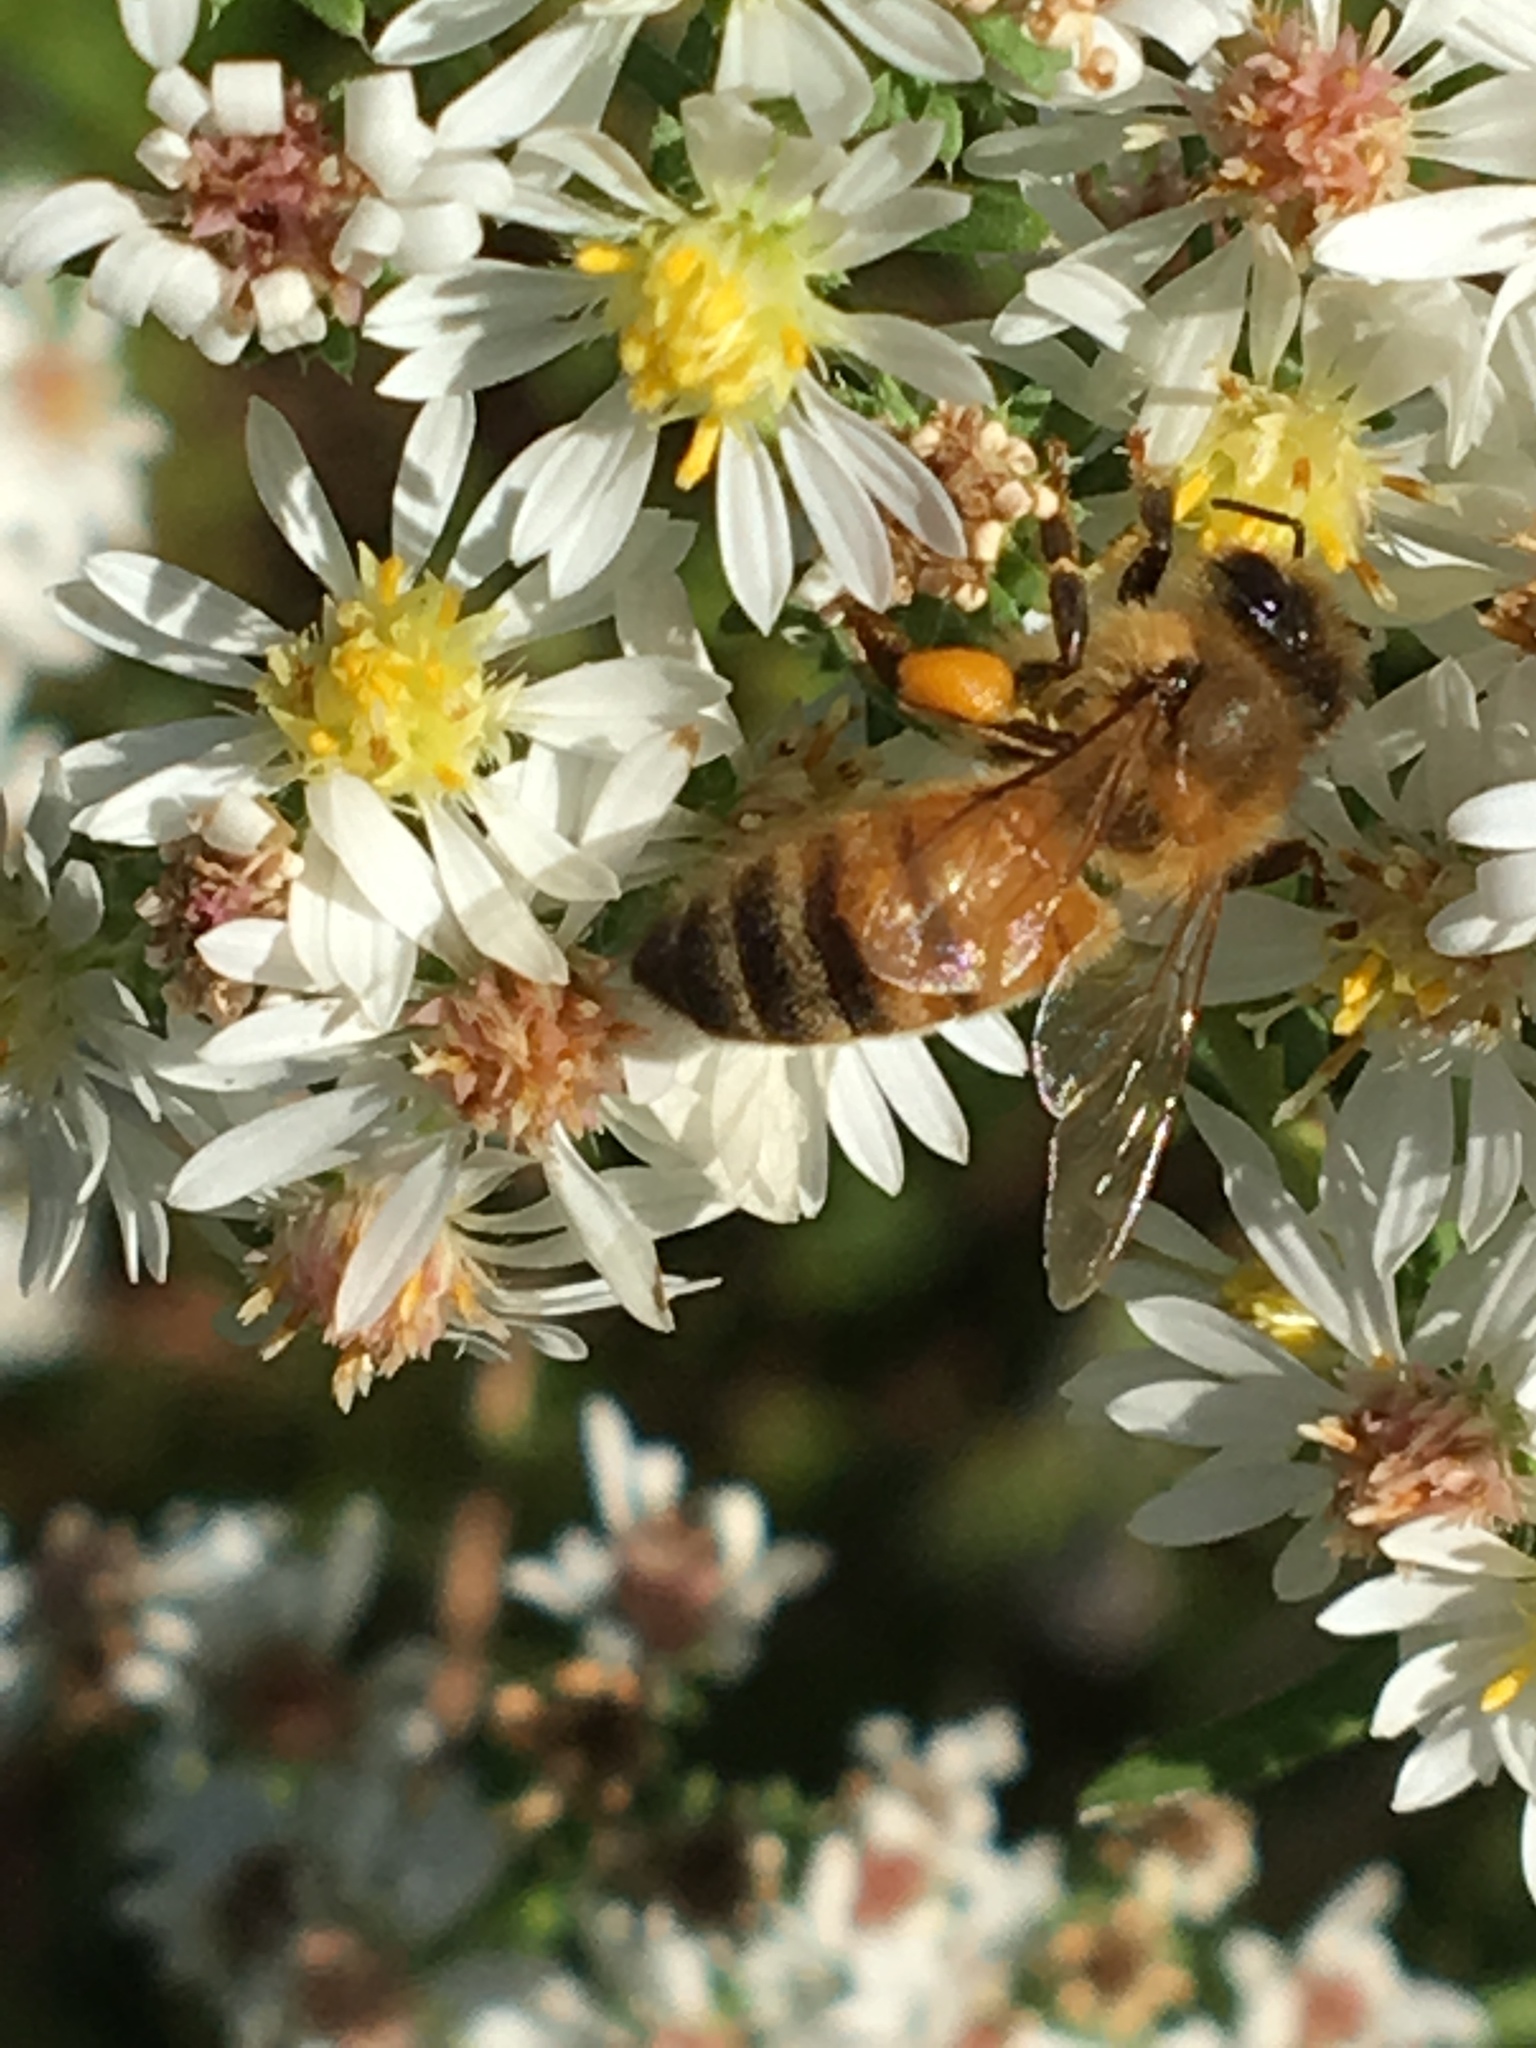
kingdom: Animalia
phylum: Arthropoda
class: Insecta
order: Hymenoptera
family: Apidae
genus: Apis
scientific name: Apis mellifera
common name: Honey bee
